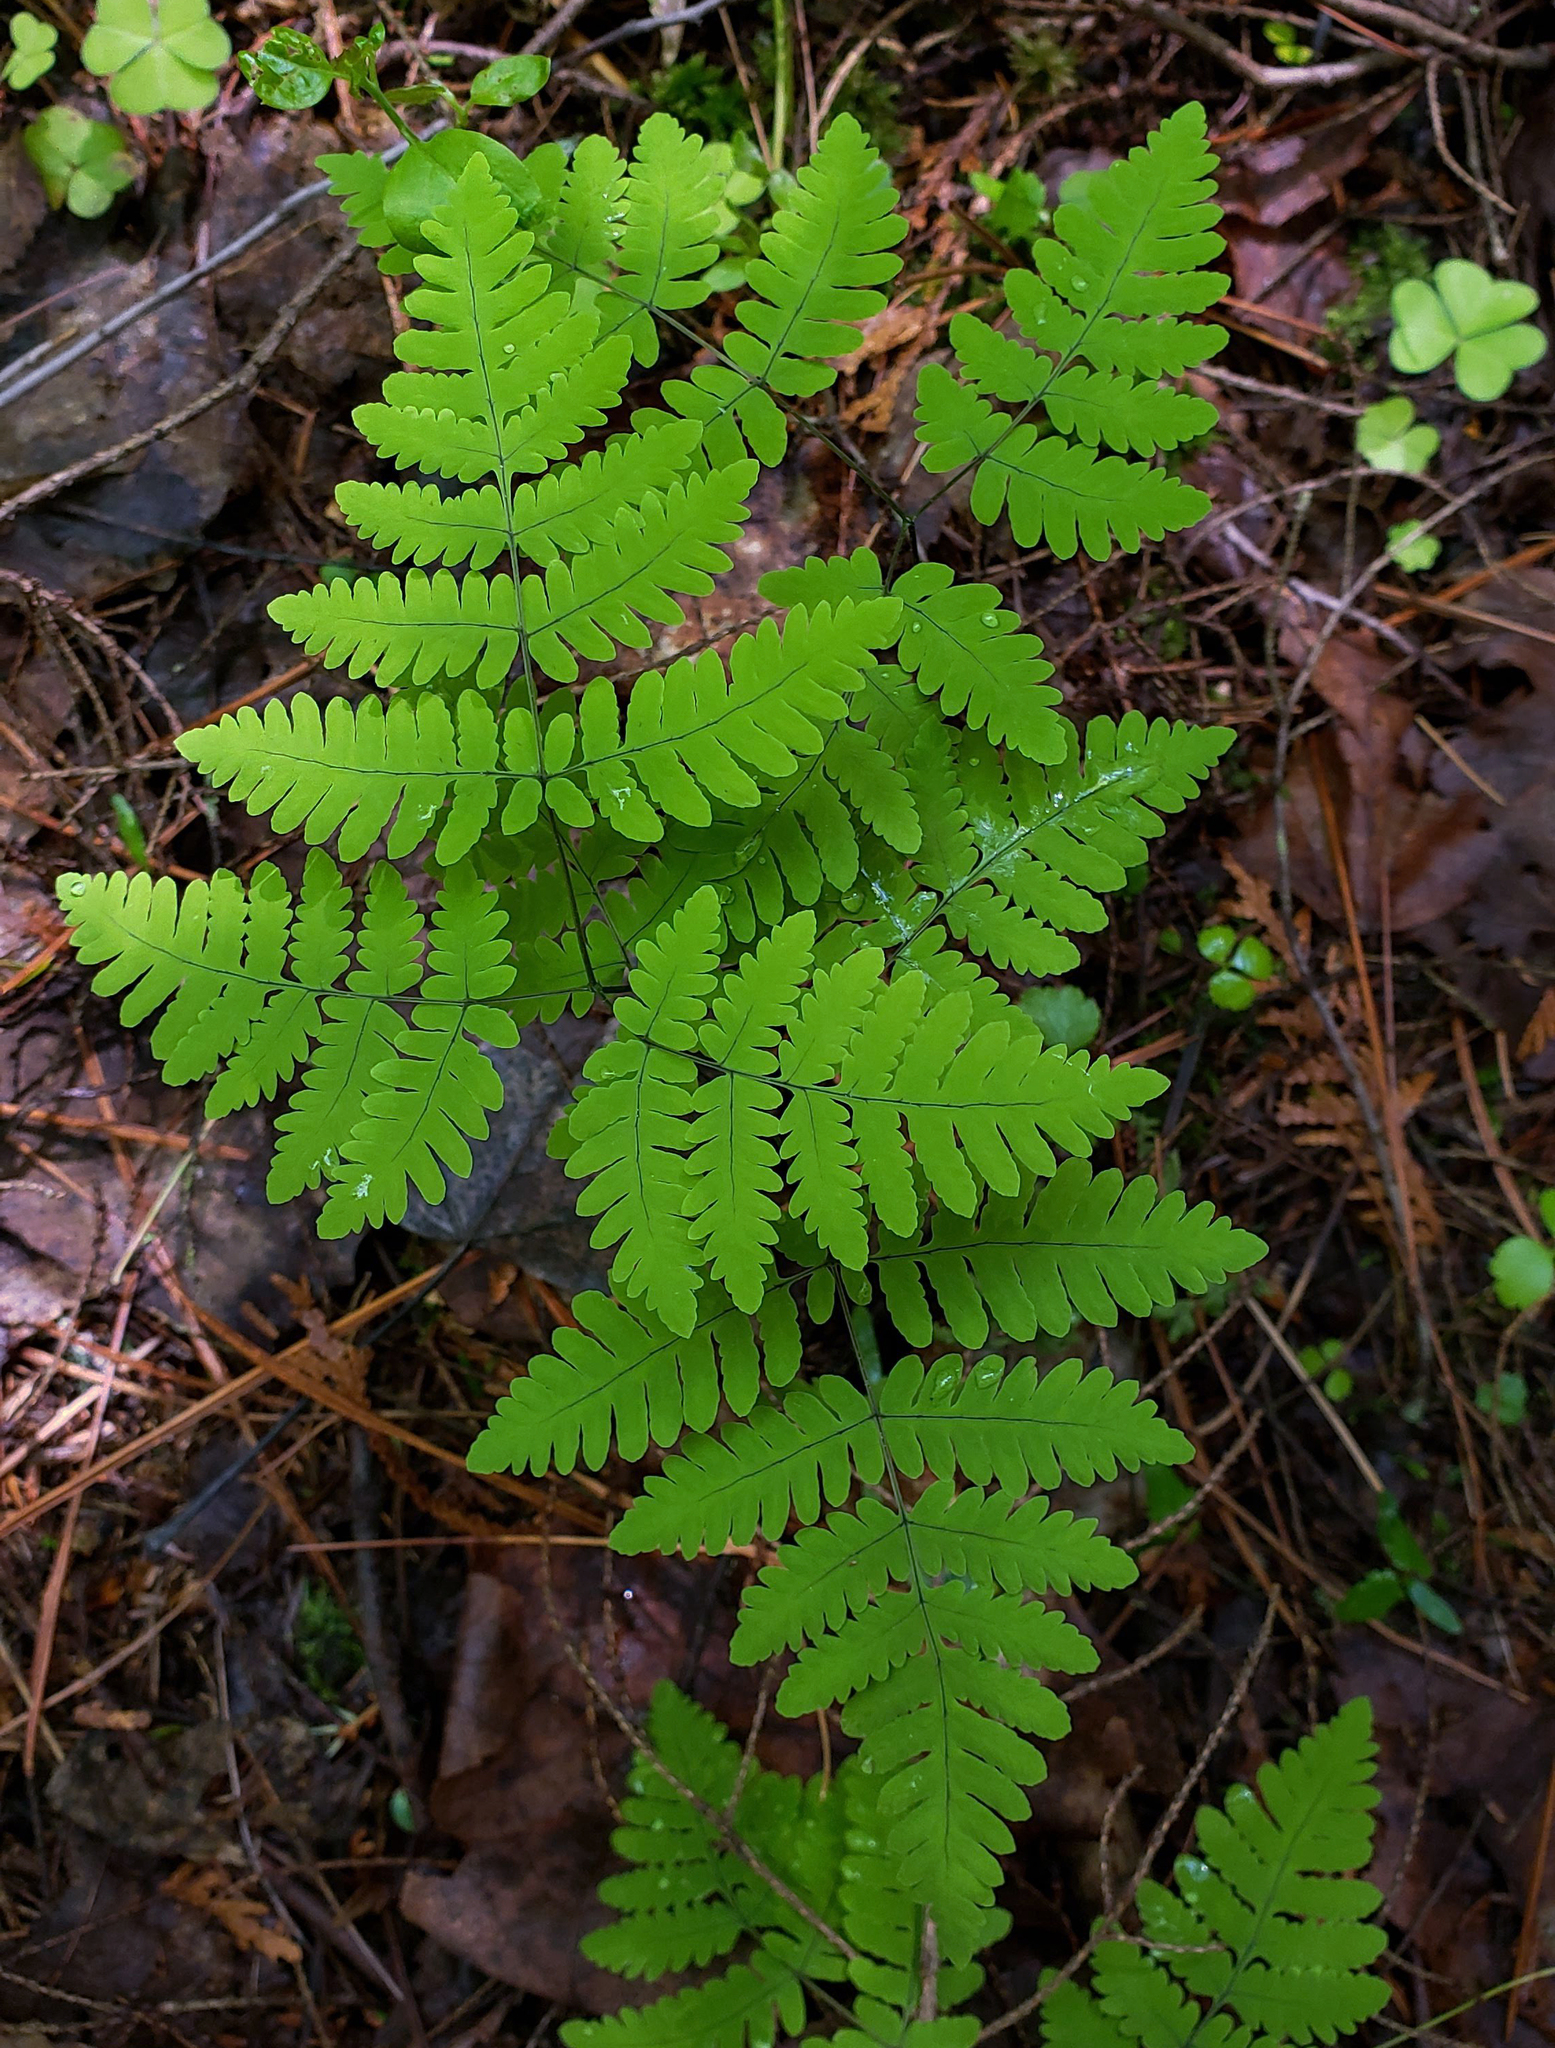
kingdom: Plantae
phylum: Tracheophyta
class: Polypodiopsida
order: Polypodiales
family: Cystopteridaceae
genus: Gymnocarpium
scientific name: Gymnocarpium dryopteris
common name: Oak fern
